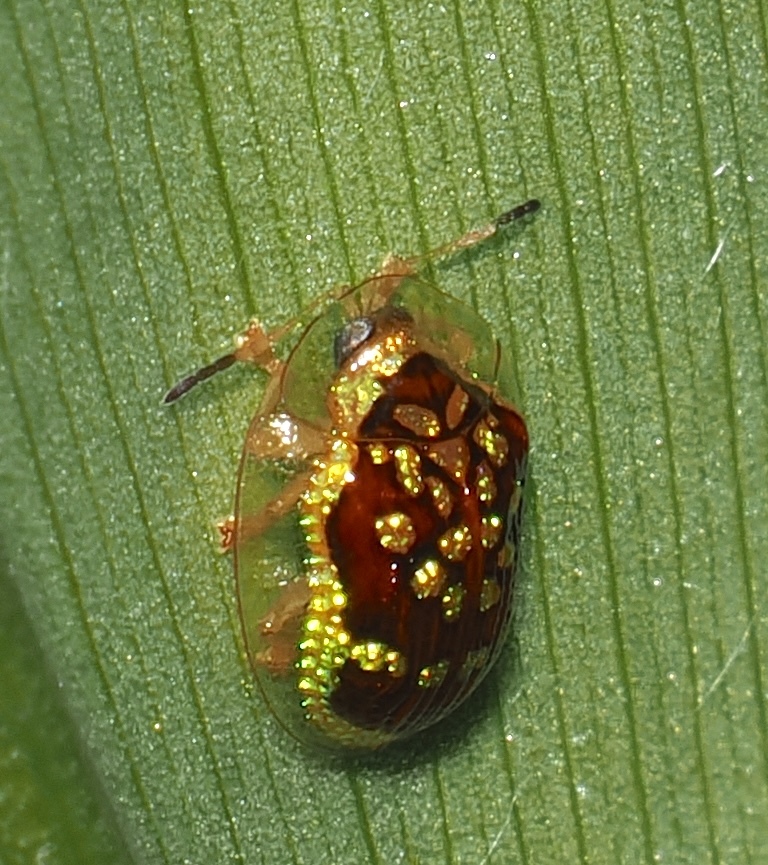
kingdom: Animalia
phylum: Arthropoda
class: Insecta
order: Coleoptera
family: Chrysomelidae
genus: Microctenochira
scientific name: Microctenochira brasiliensis
